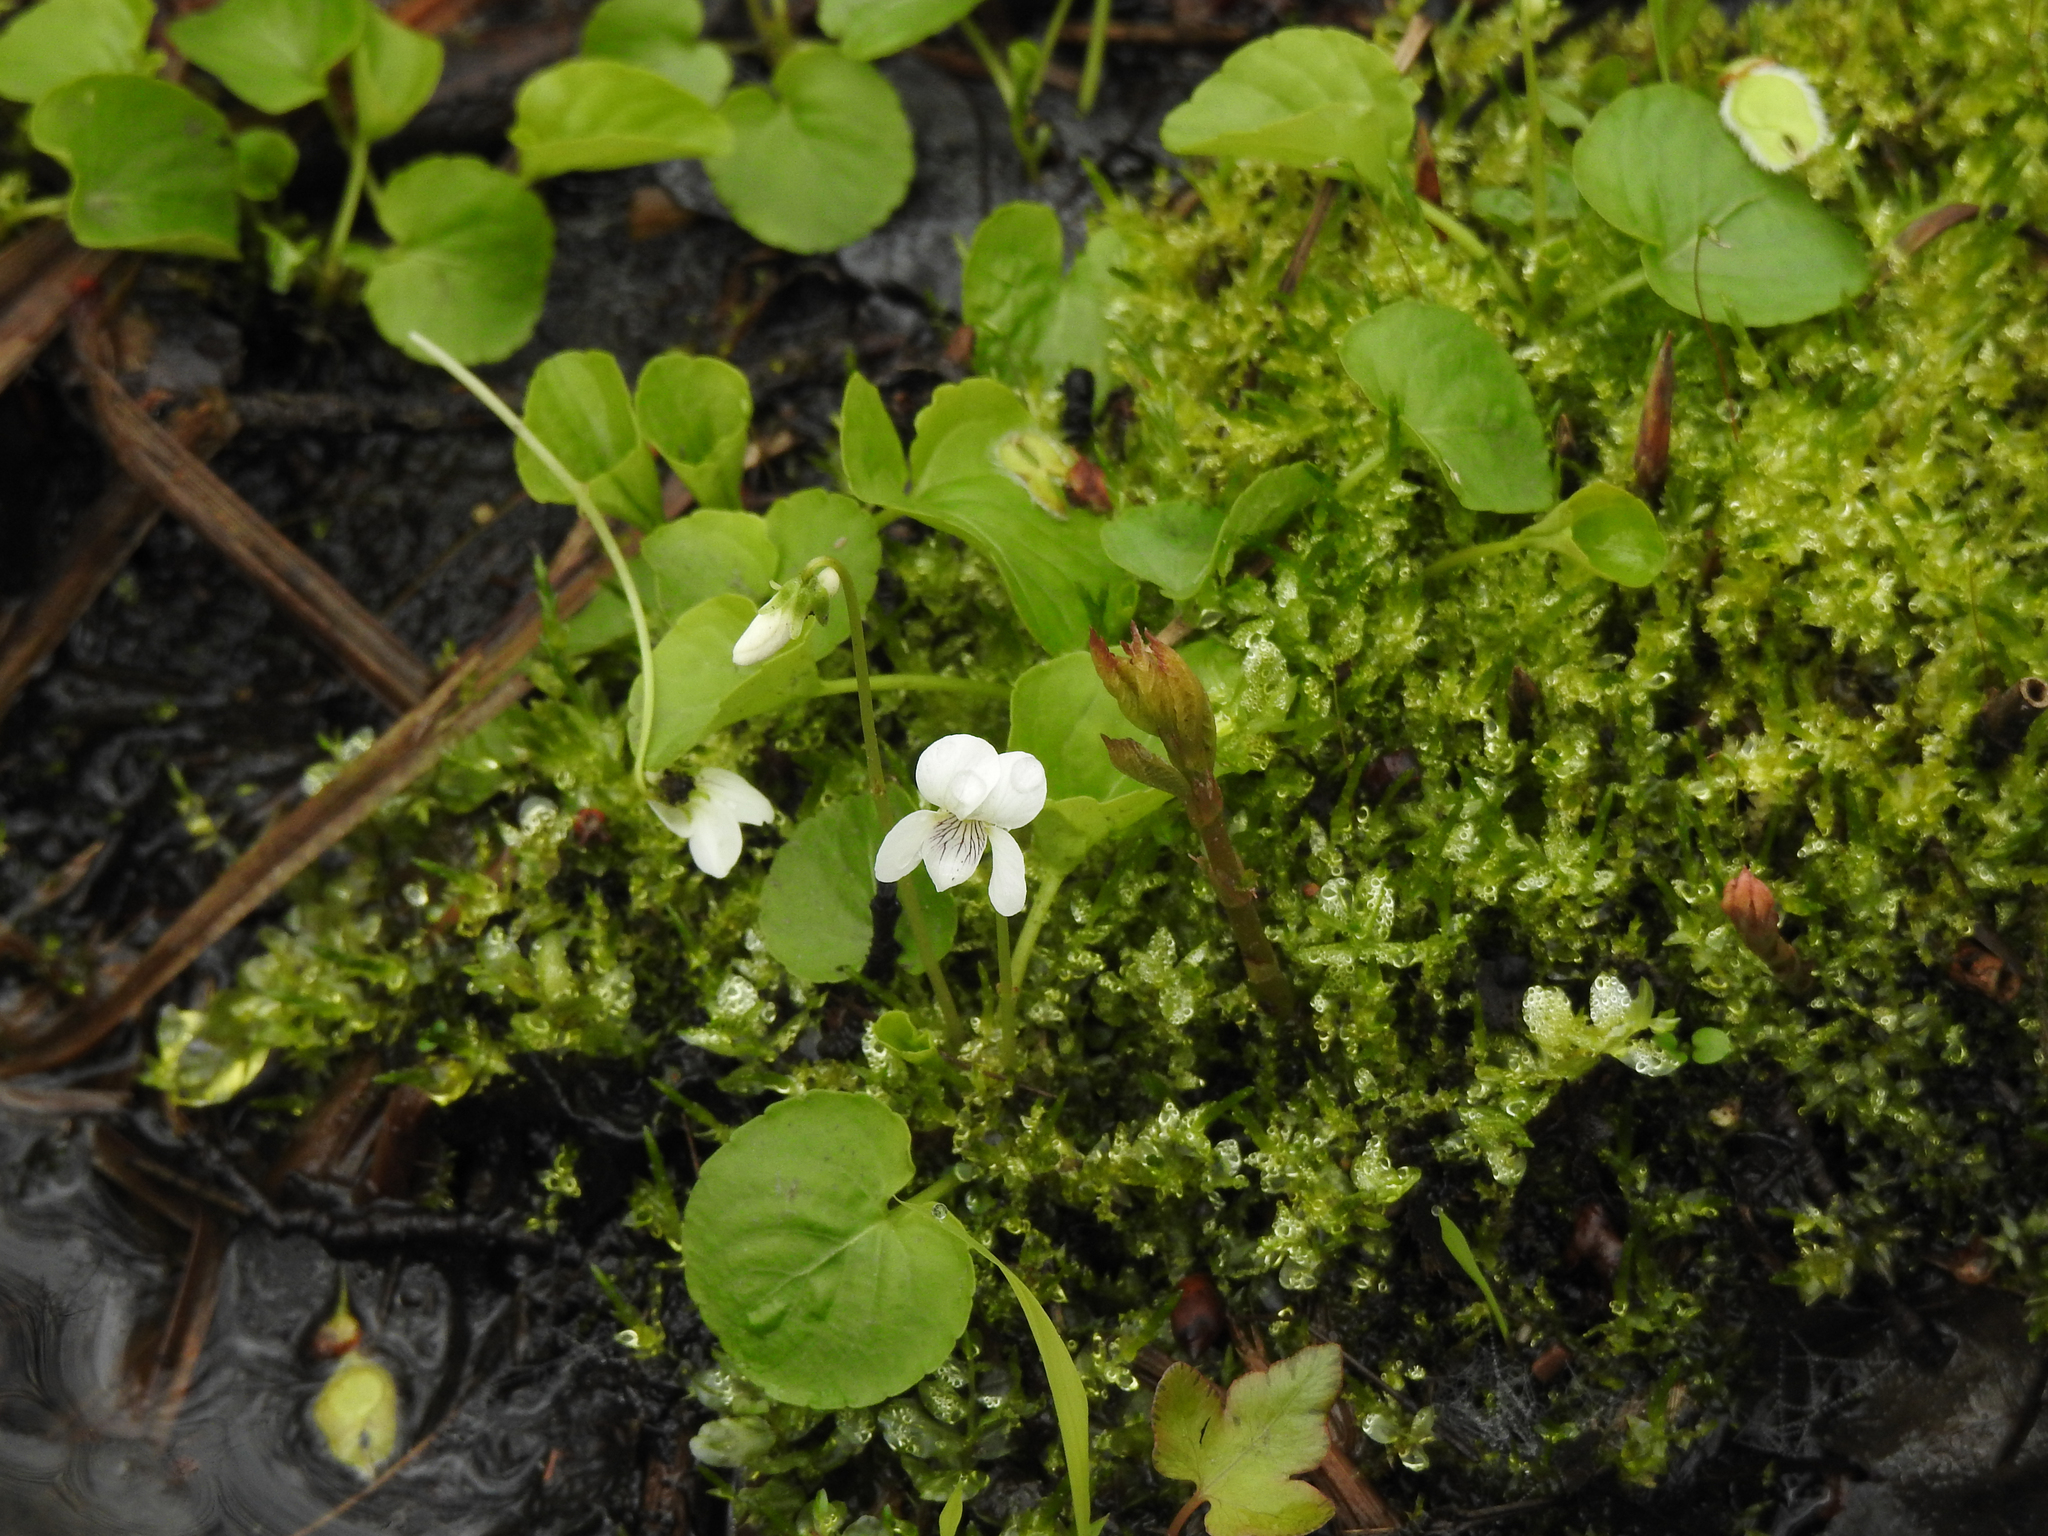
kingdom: Plantae
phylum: Tracheophyta
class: Magnoliopsida
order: Malpighiales
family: Violaceae
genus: Viola
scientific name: Viola minuscula
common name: Northern white violet
